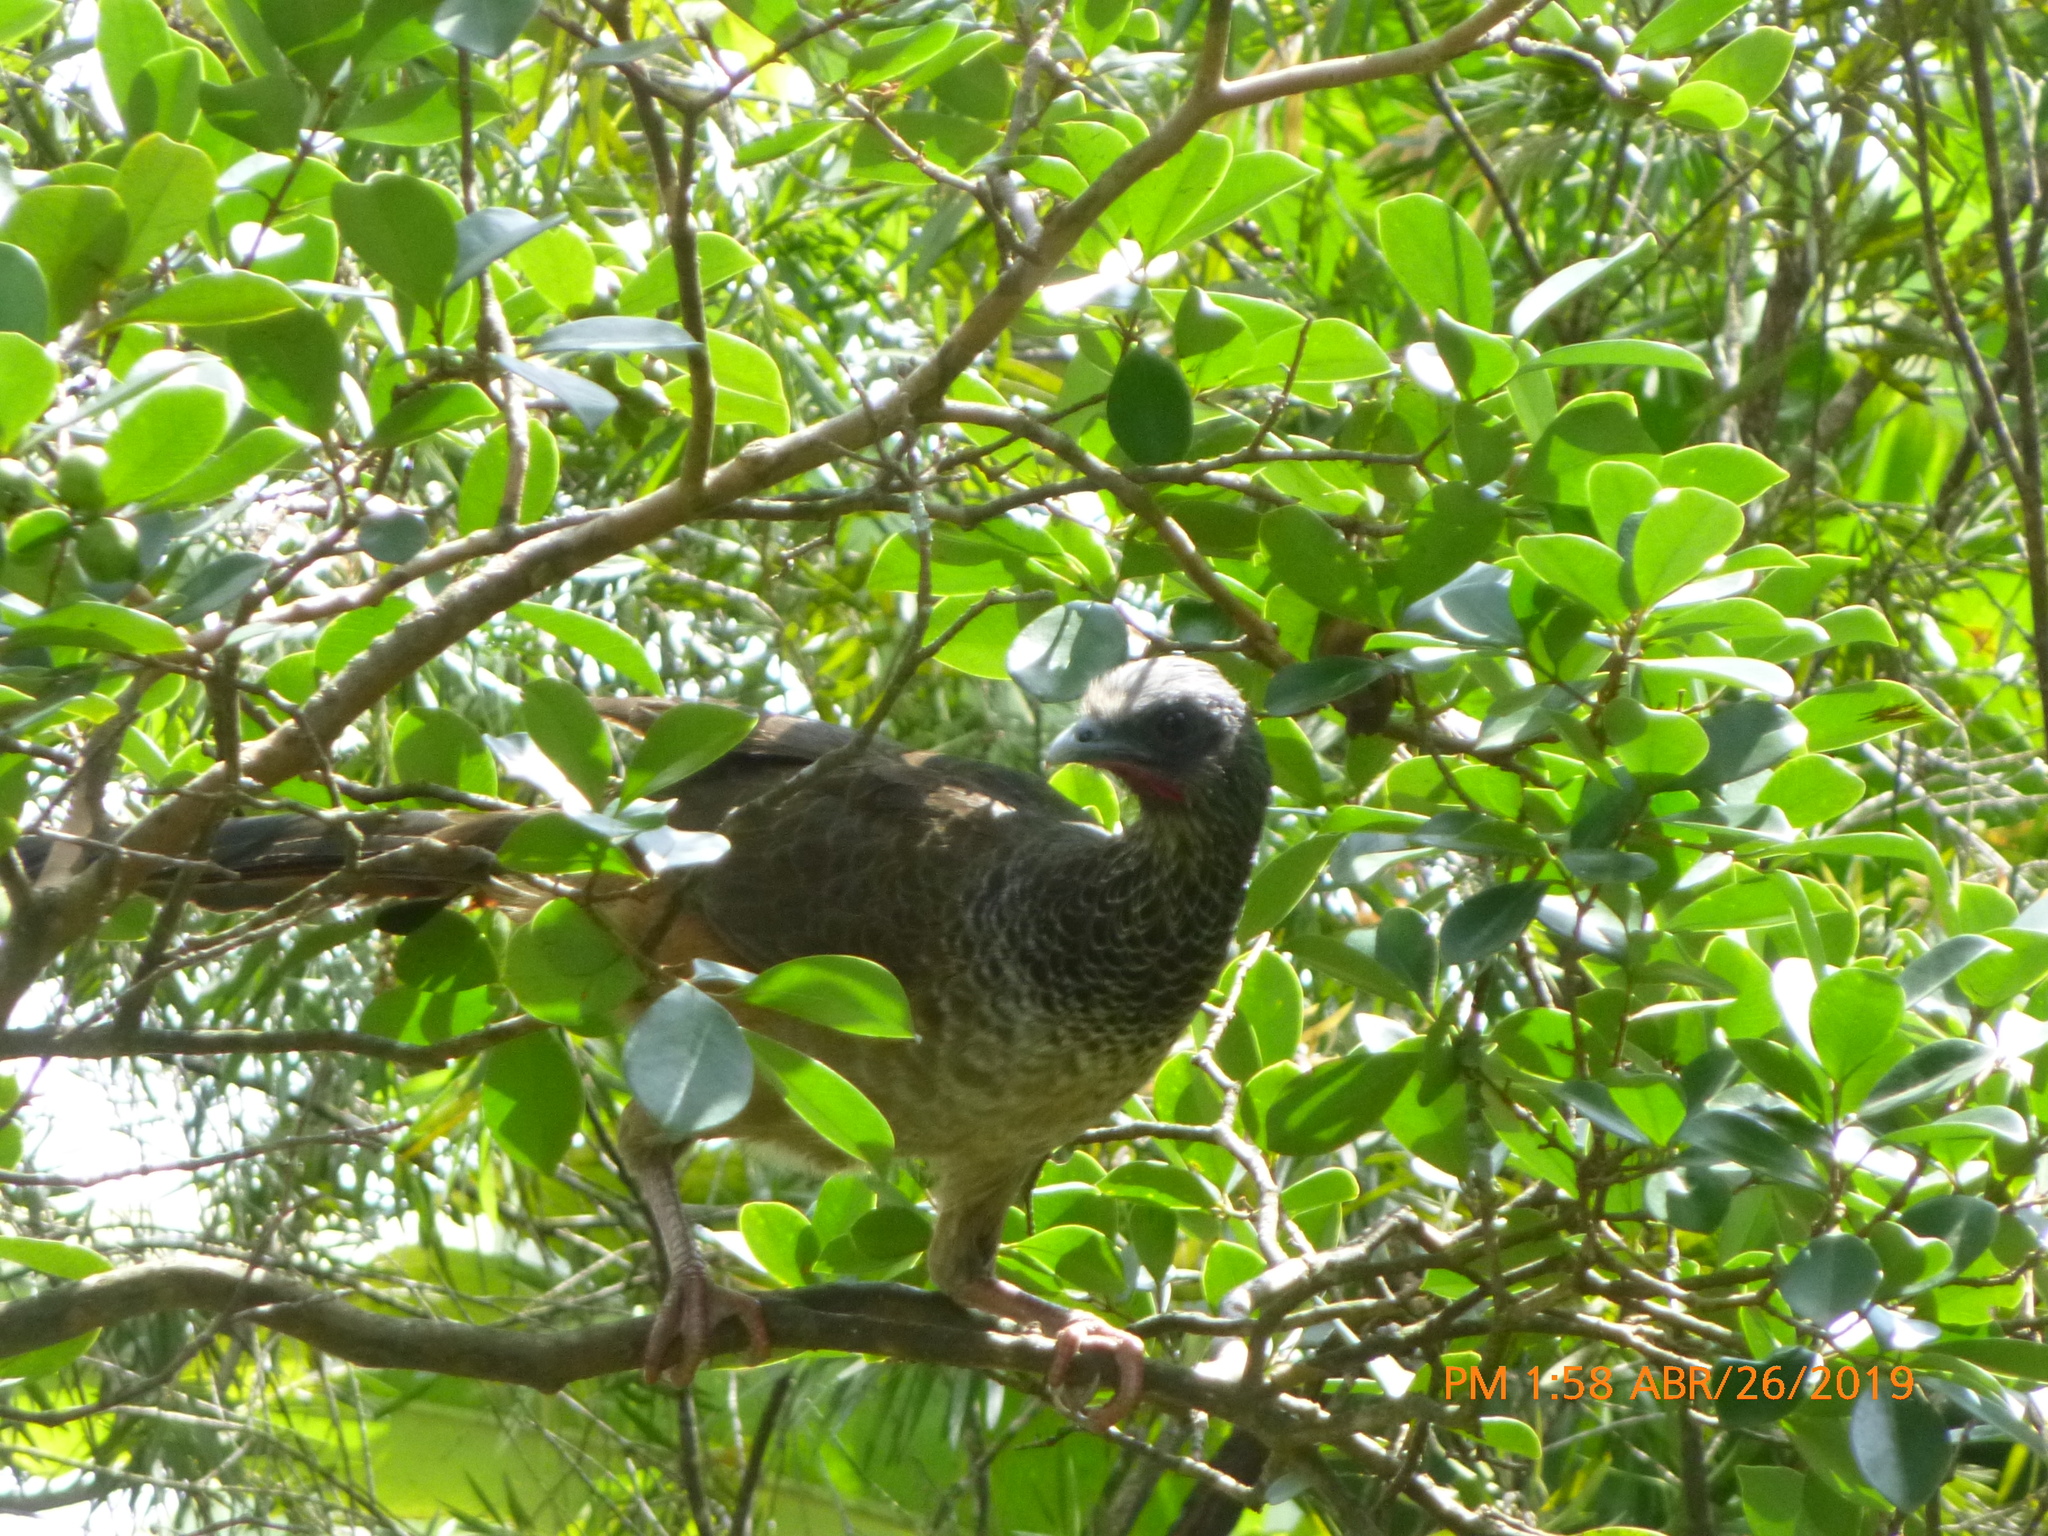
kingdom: Animalia
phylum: Chordata
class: Aves
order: Galliformes
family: Cracidae
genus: Ortalis
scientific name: Ortalis columbiana
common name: Colombian chachalaca
